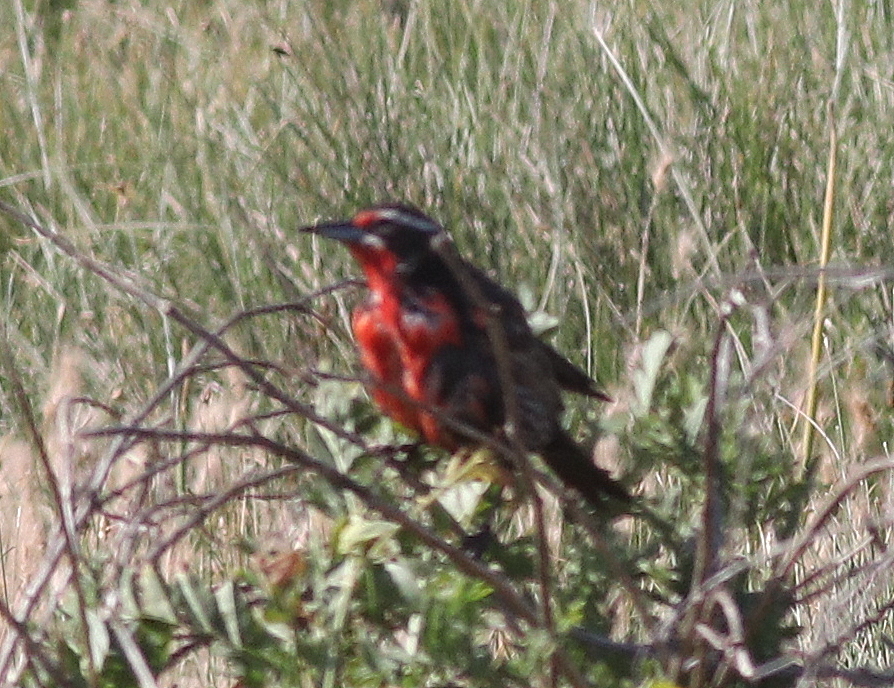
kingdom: Animalia
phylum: Chordata
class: Aves
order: Passeriformes
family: Icteridae
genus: Sturnella
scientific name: Sturnella loyca
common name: Long-tailed meadowlark
